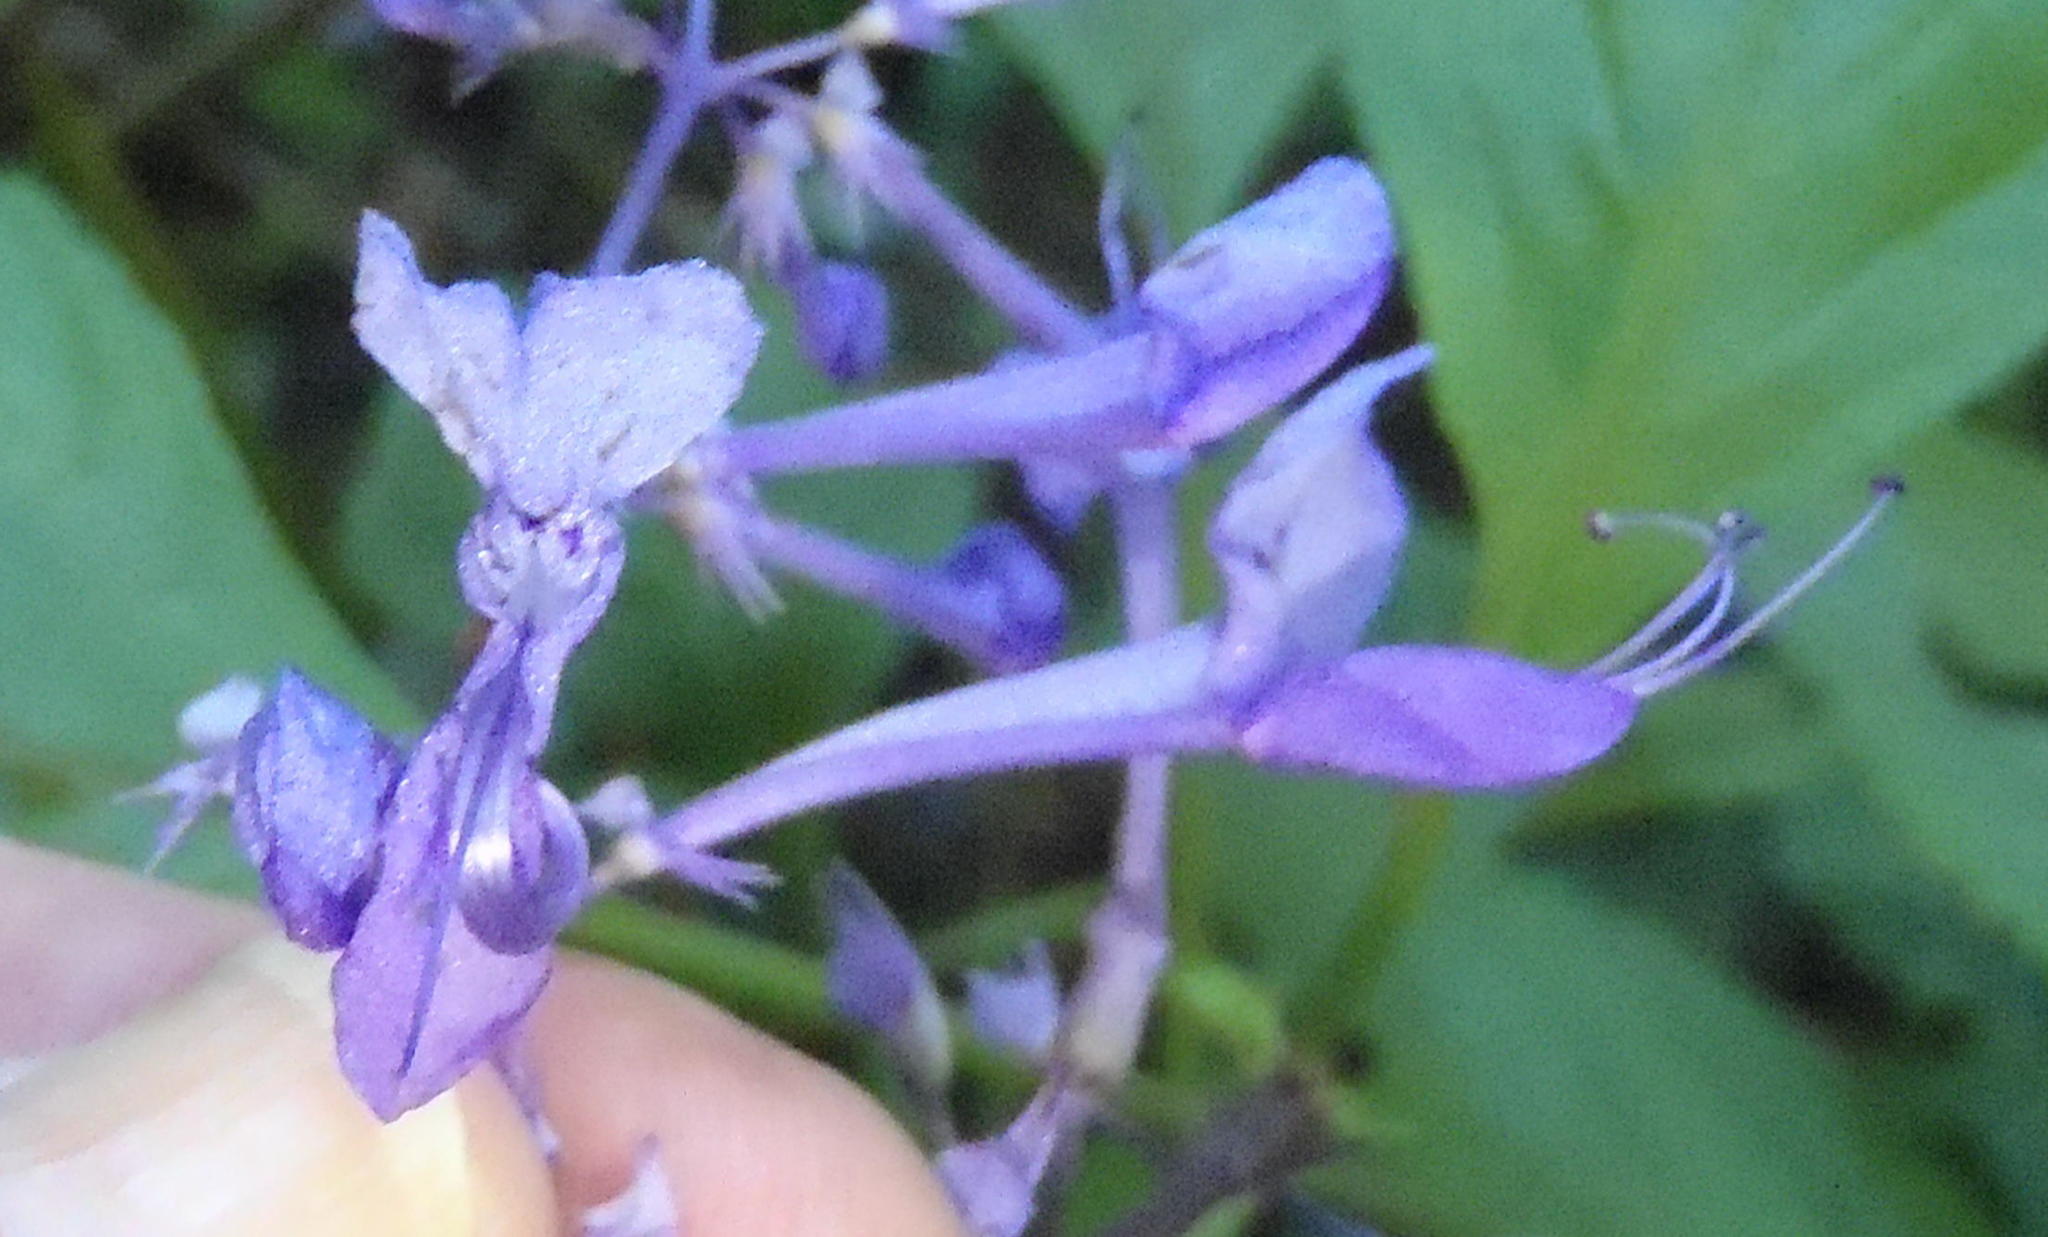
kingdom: Plantae
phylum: Tracheophyta
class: Magnoliopsida
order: Lamiales
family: Lamiaceae
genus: Plectranthus
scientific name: Plectranthus ecklonii
